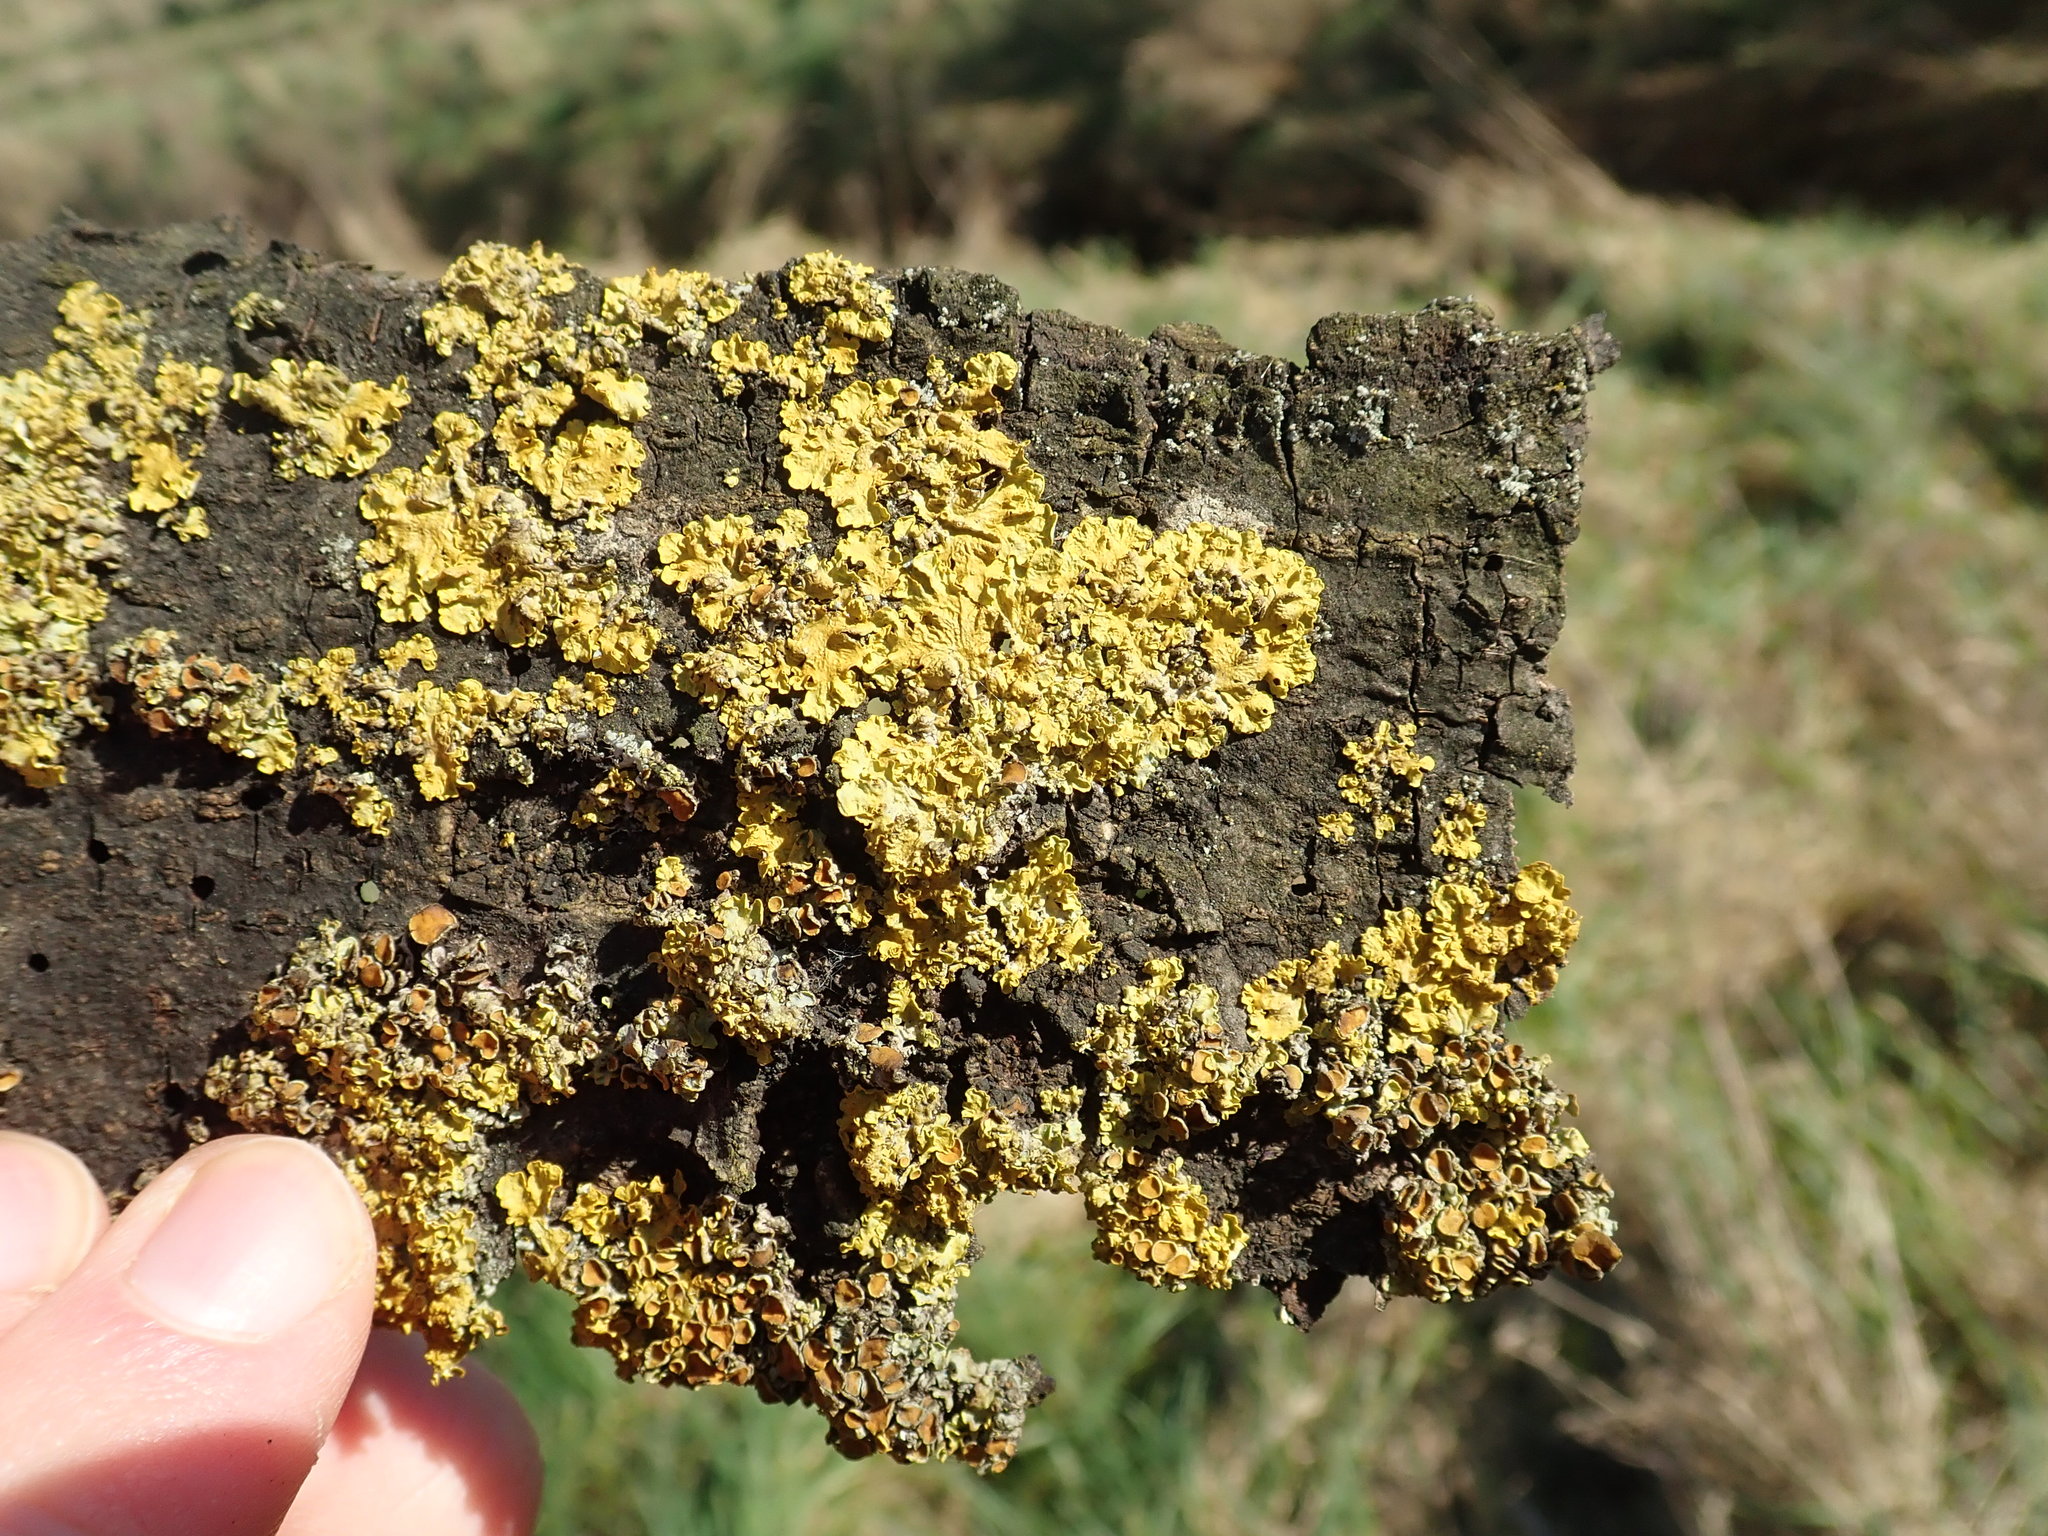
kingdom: Fungi
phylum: Ascomycota
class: Lecanoromycetes
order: Teloschistales
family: Teloschistaceae
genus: Xanthoria
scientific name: Xanthoria parietina
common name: Common orange lichen
